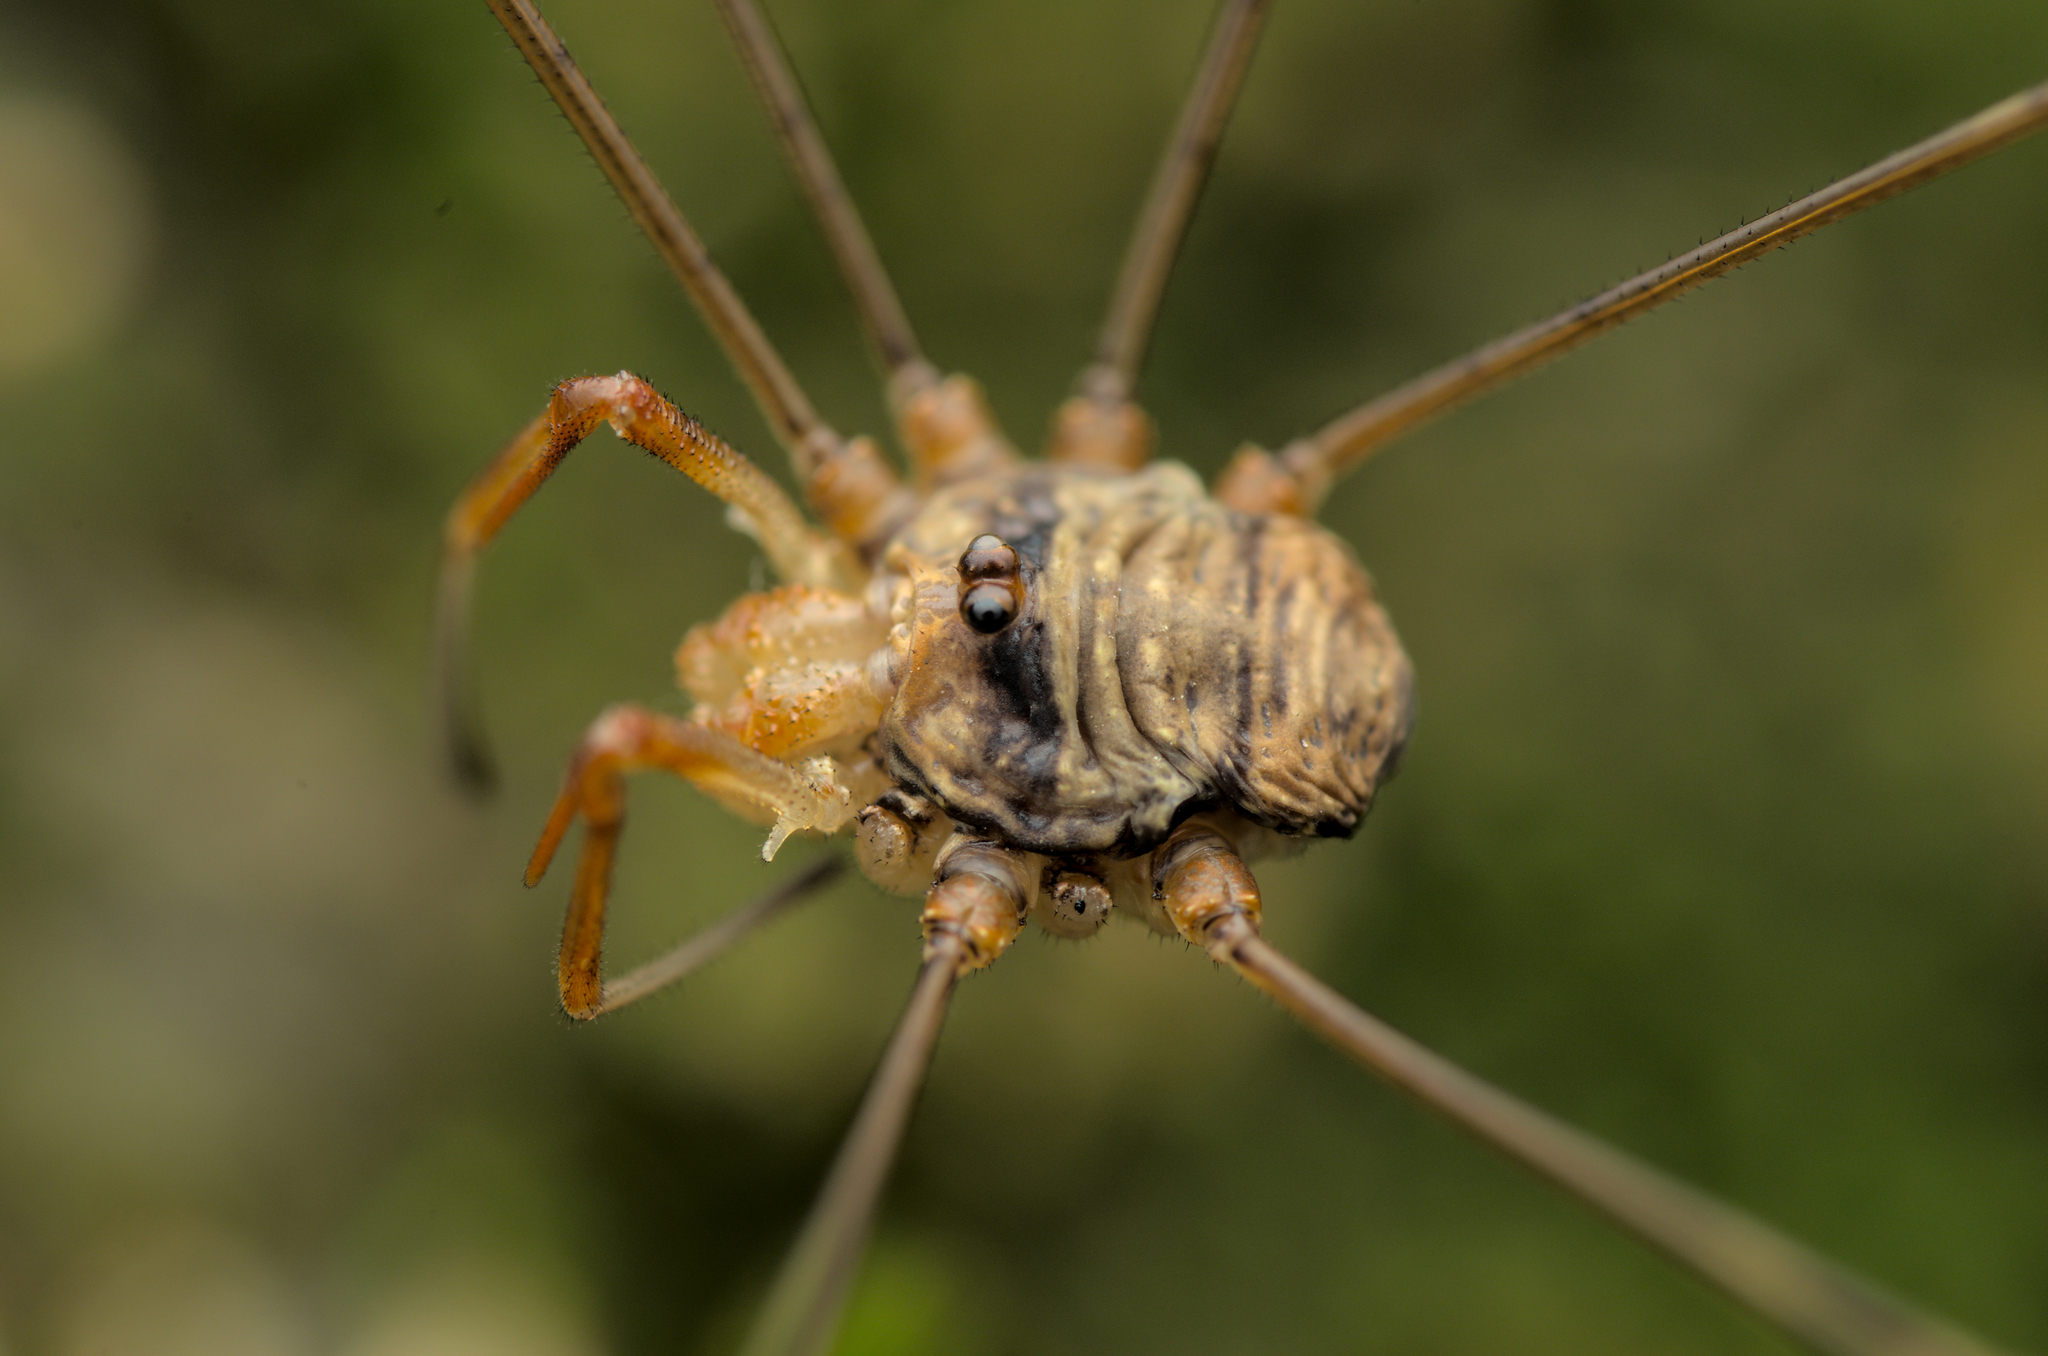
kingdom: Animalia
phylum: Arthropoda
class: Arachnida
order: Opiliones
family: Phalangiidae
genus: Dicranopalpus
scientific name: Dicranopalpus ramosus
